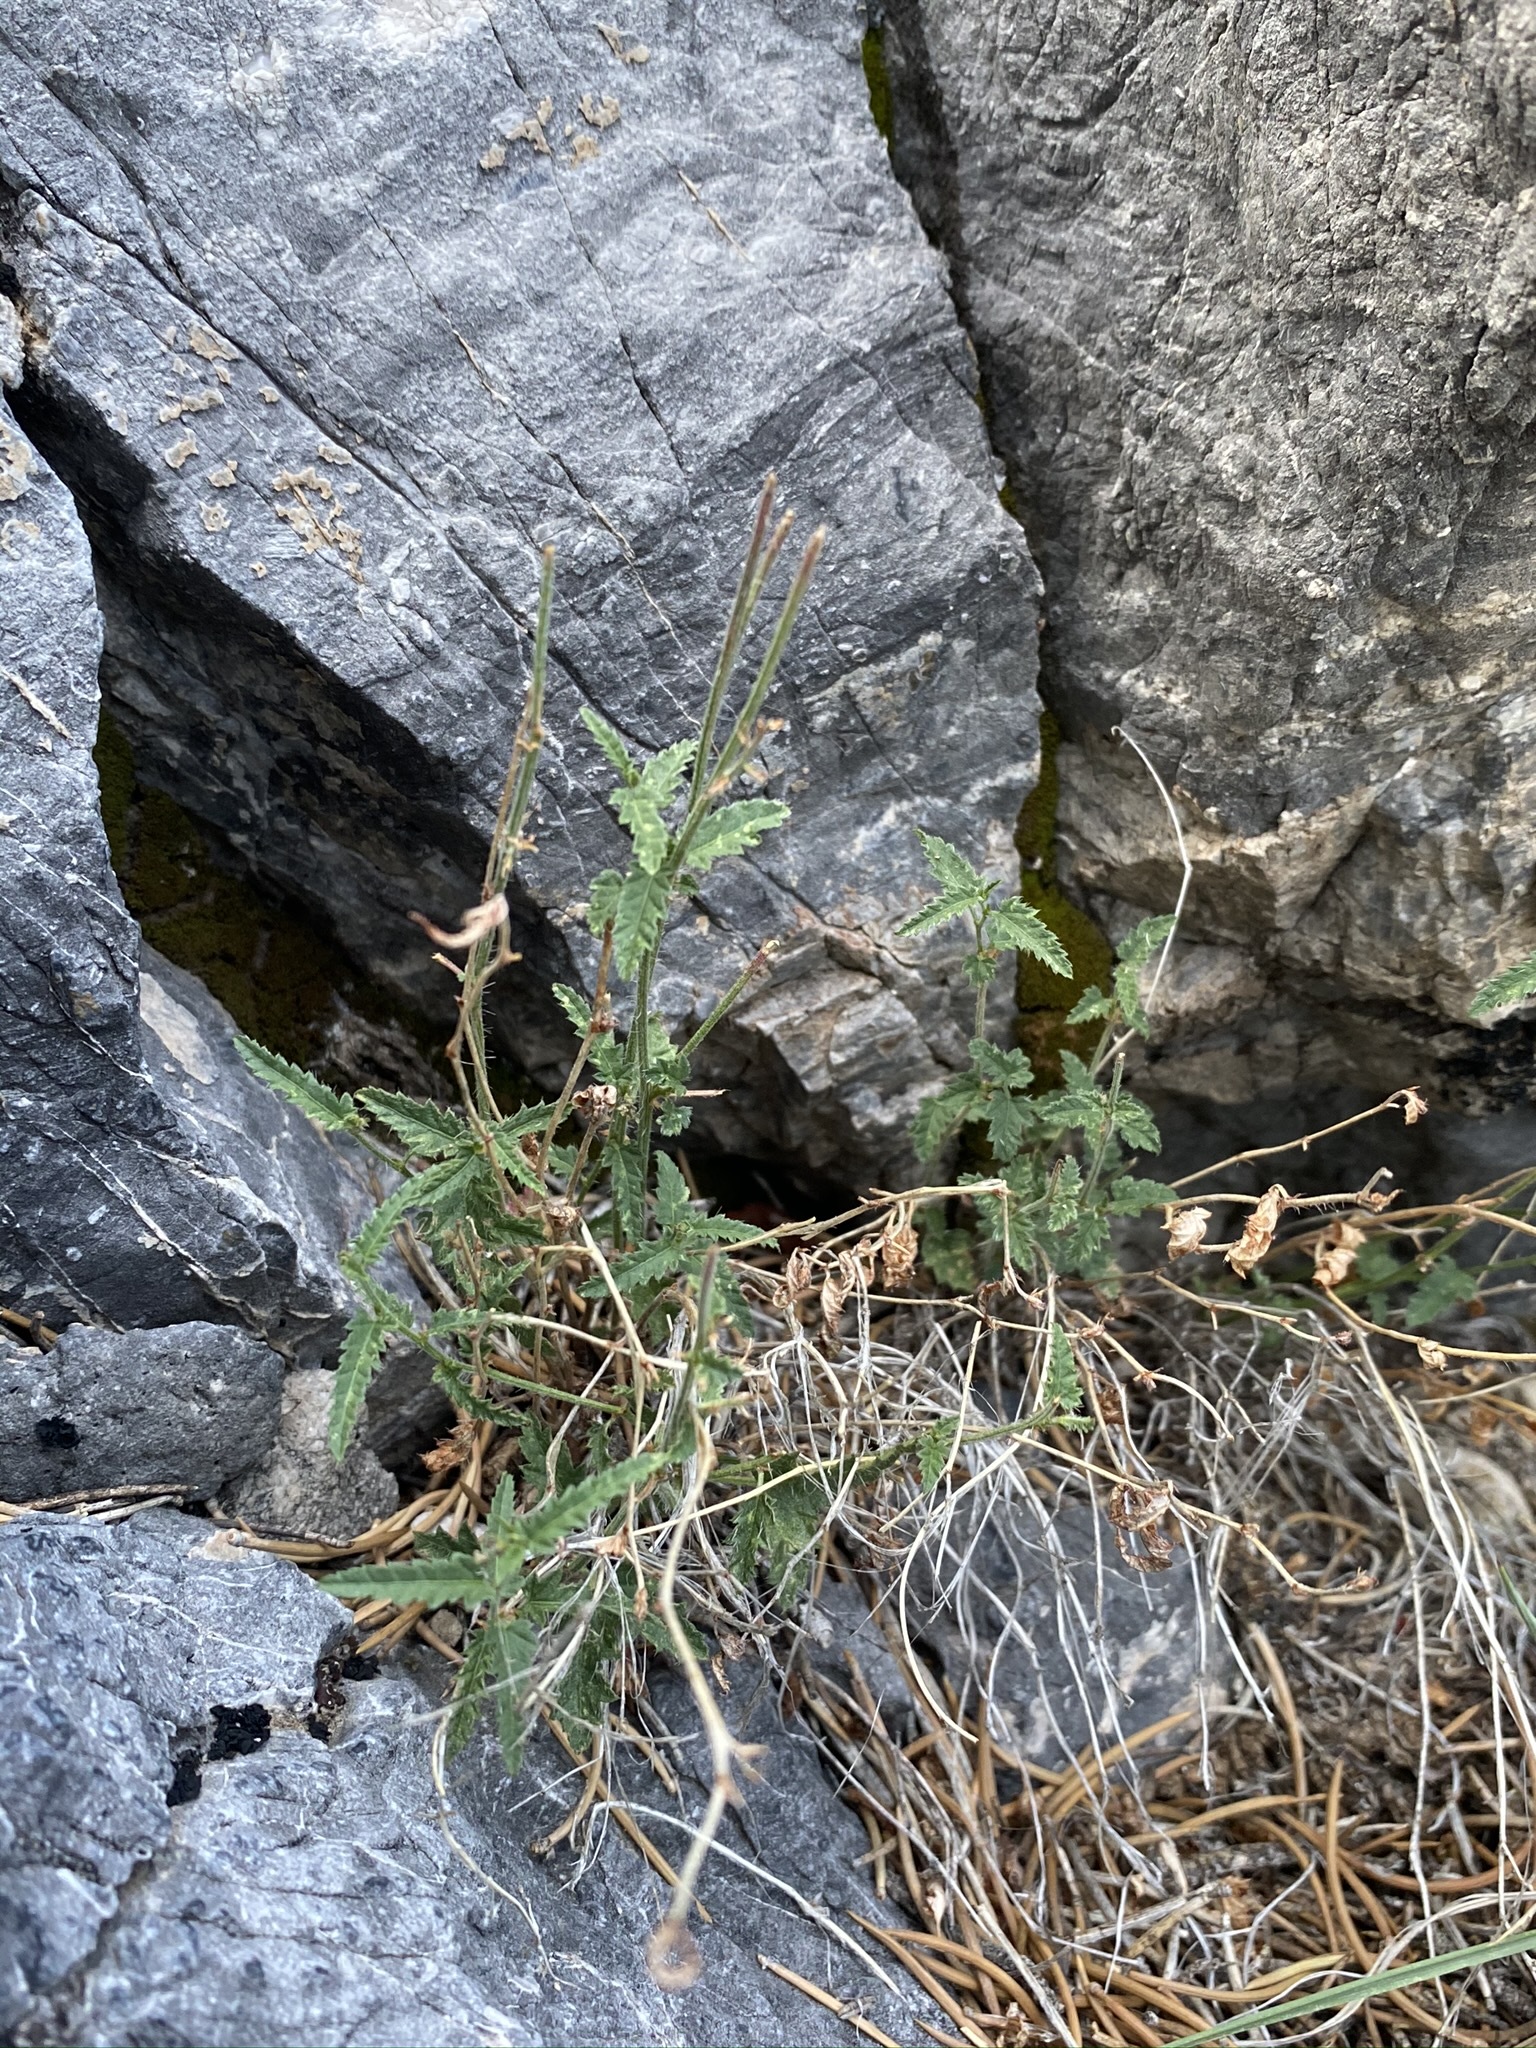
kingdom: Plantae
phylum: Tracheophyta
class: Magnoliopsida
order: Malpighiales
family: Euphorbiaceae
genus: Tragia
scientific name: Tragia ramosa
